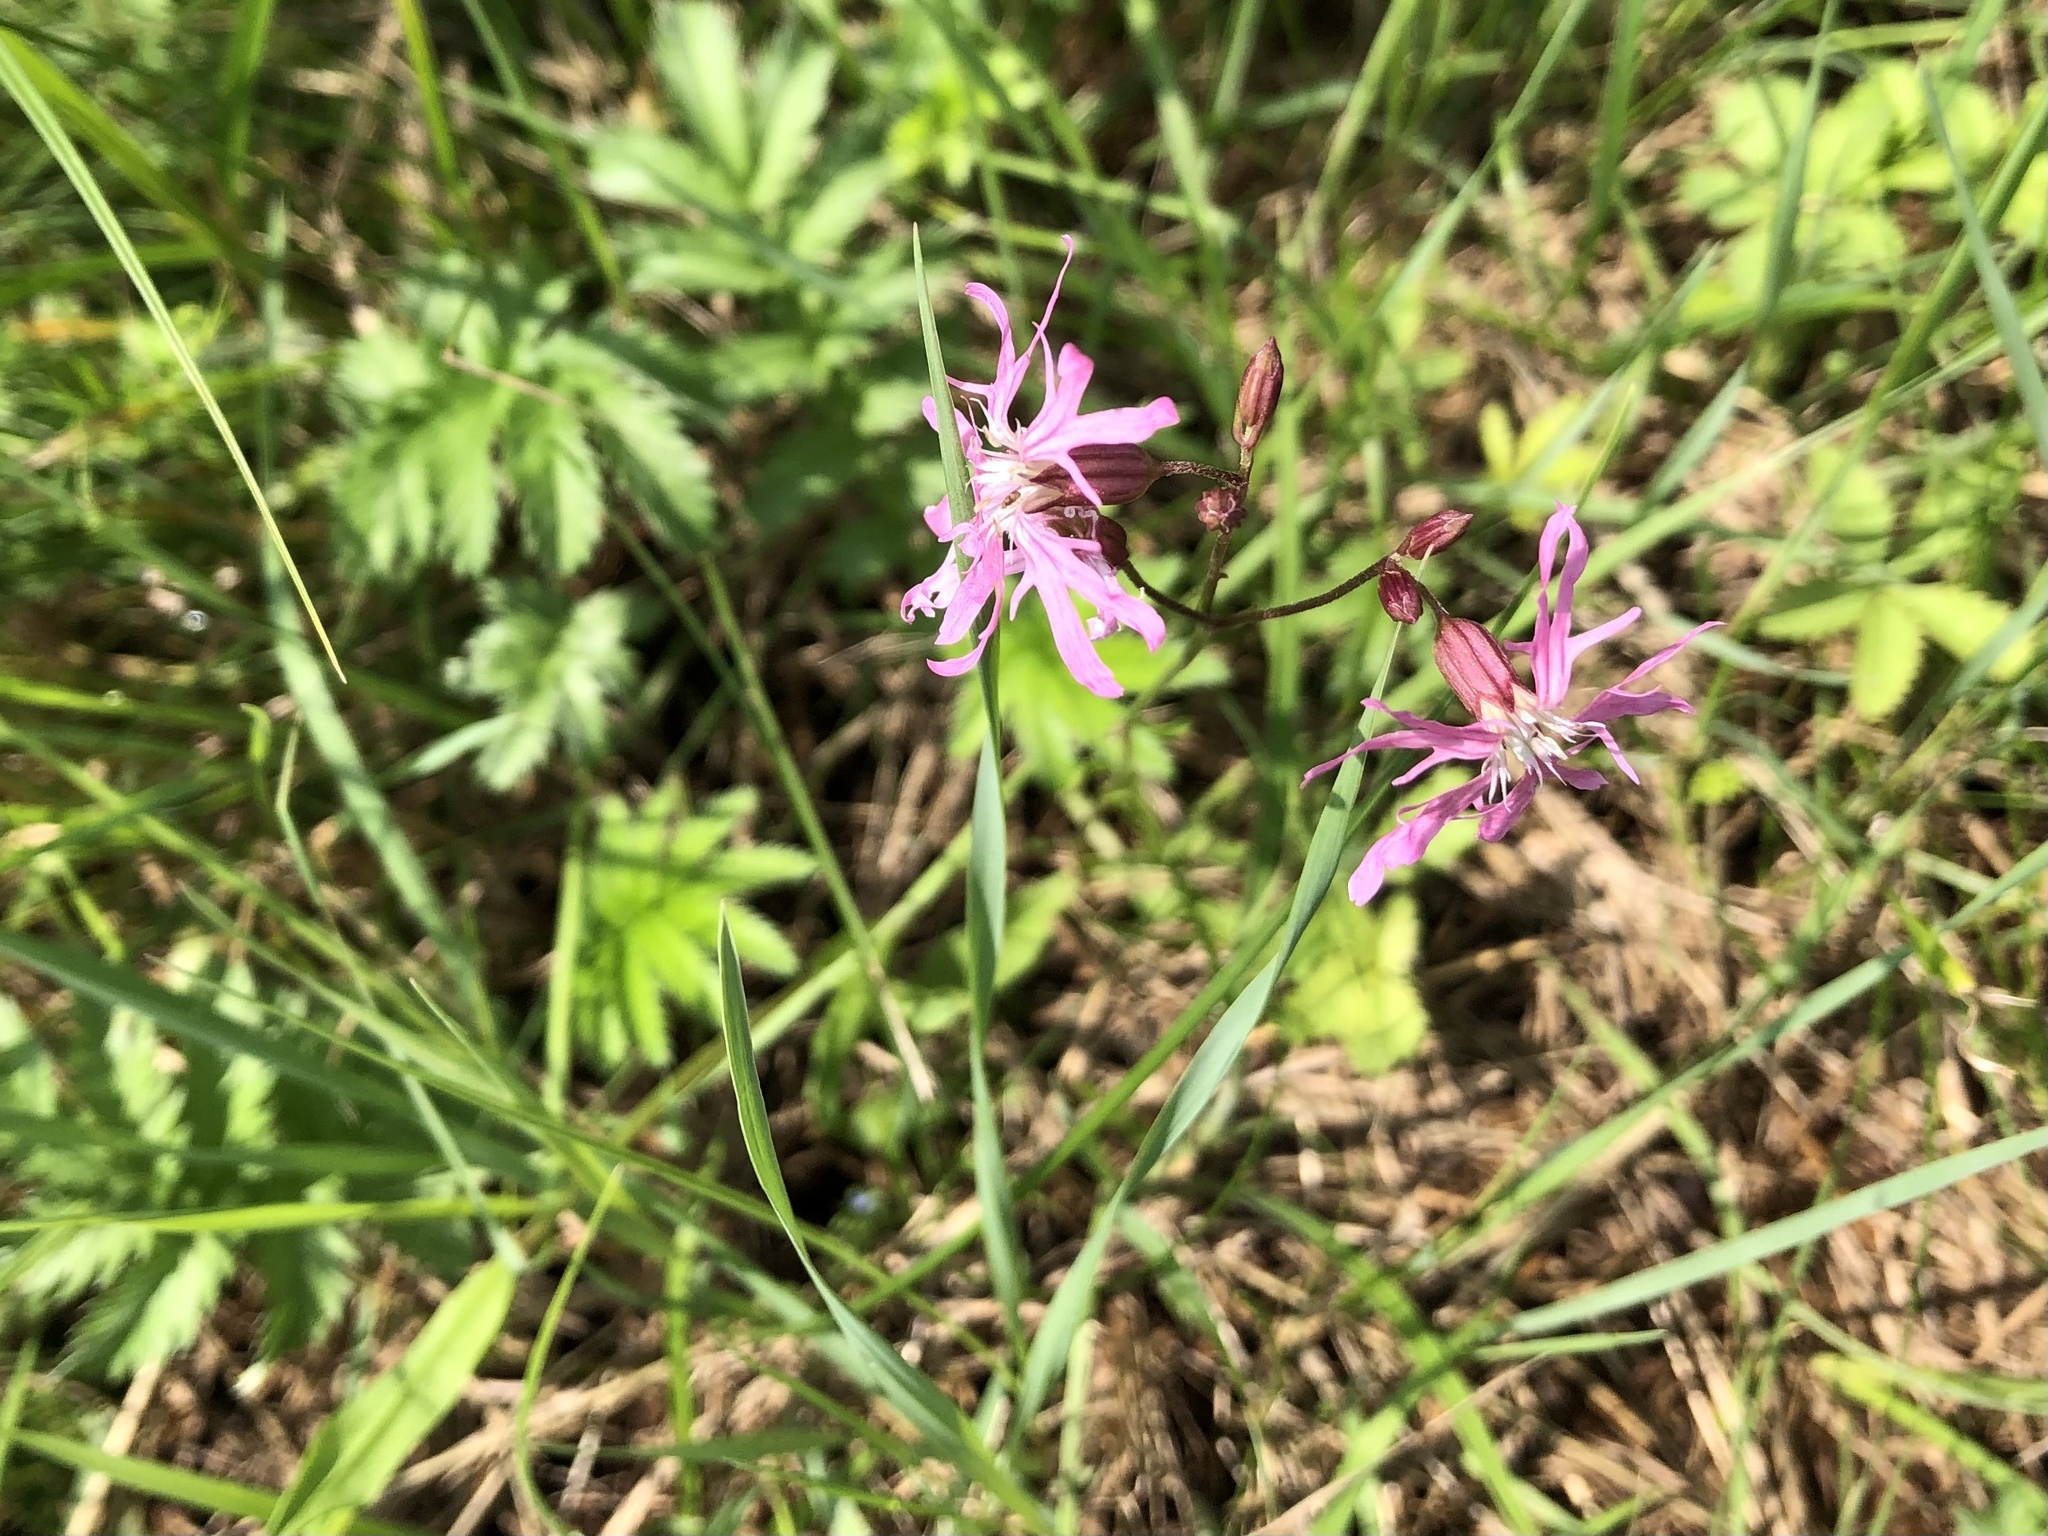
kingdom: Plantae
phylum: Tracheophyta
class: Magnoliopsida
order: Caryophyllales
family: Caryophyllaceae
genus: Silene
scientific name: Silene flos-cuculi
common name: Ragged-robin
